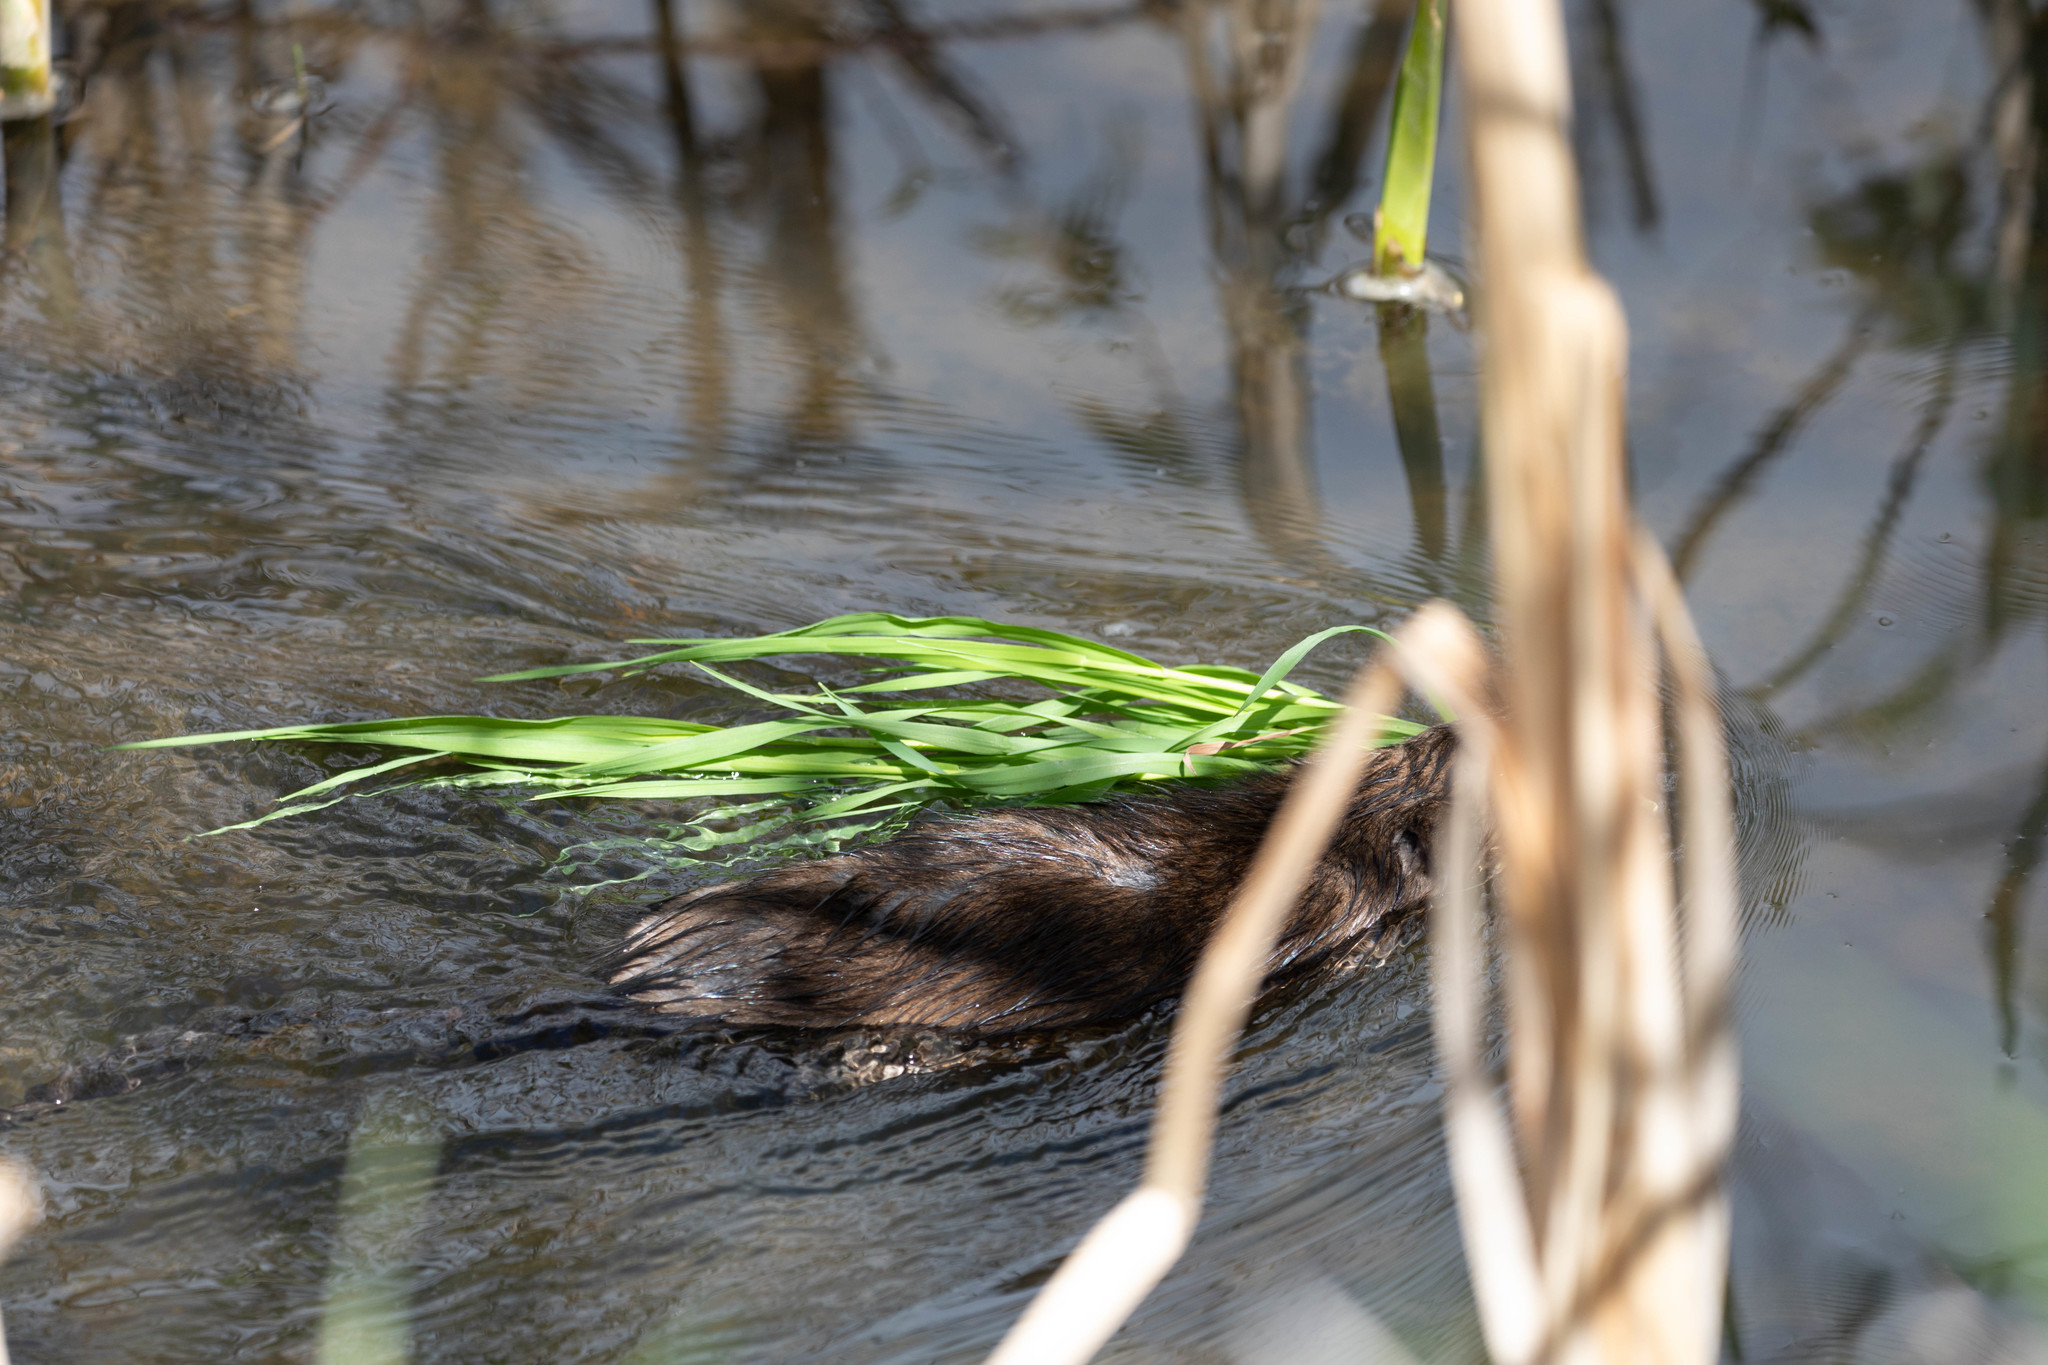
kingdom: Animalia
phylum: Chordata
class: Mammalia
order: Rodentia
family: Cricetidae
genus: Ondatra
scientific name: Ondatra zibethicus
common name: Muskrat
